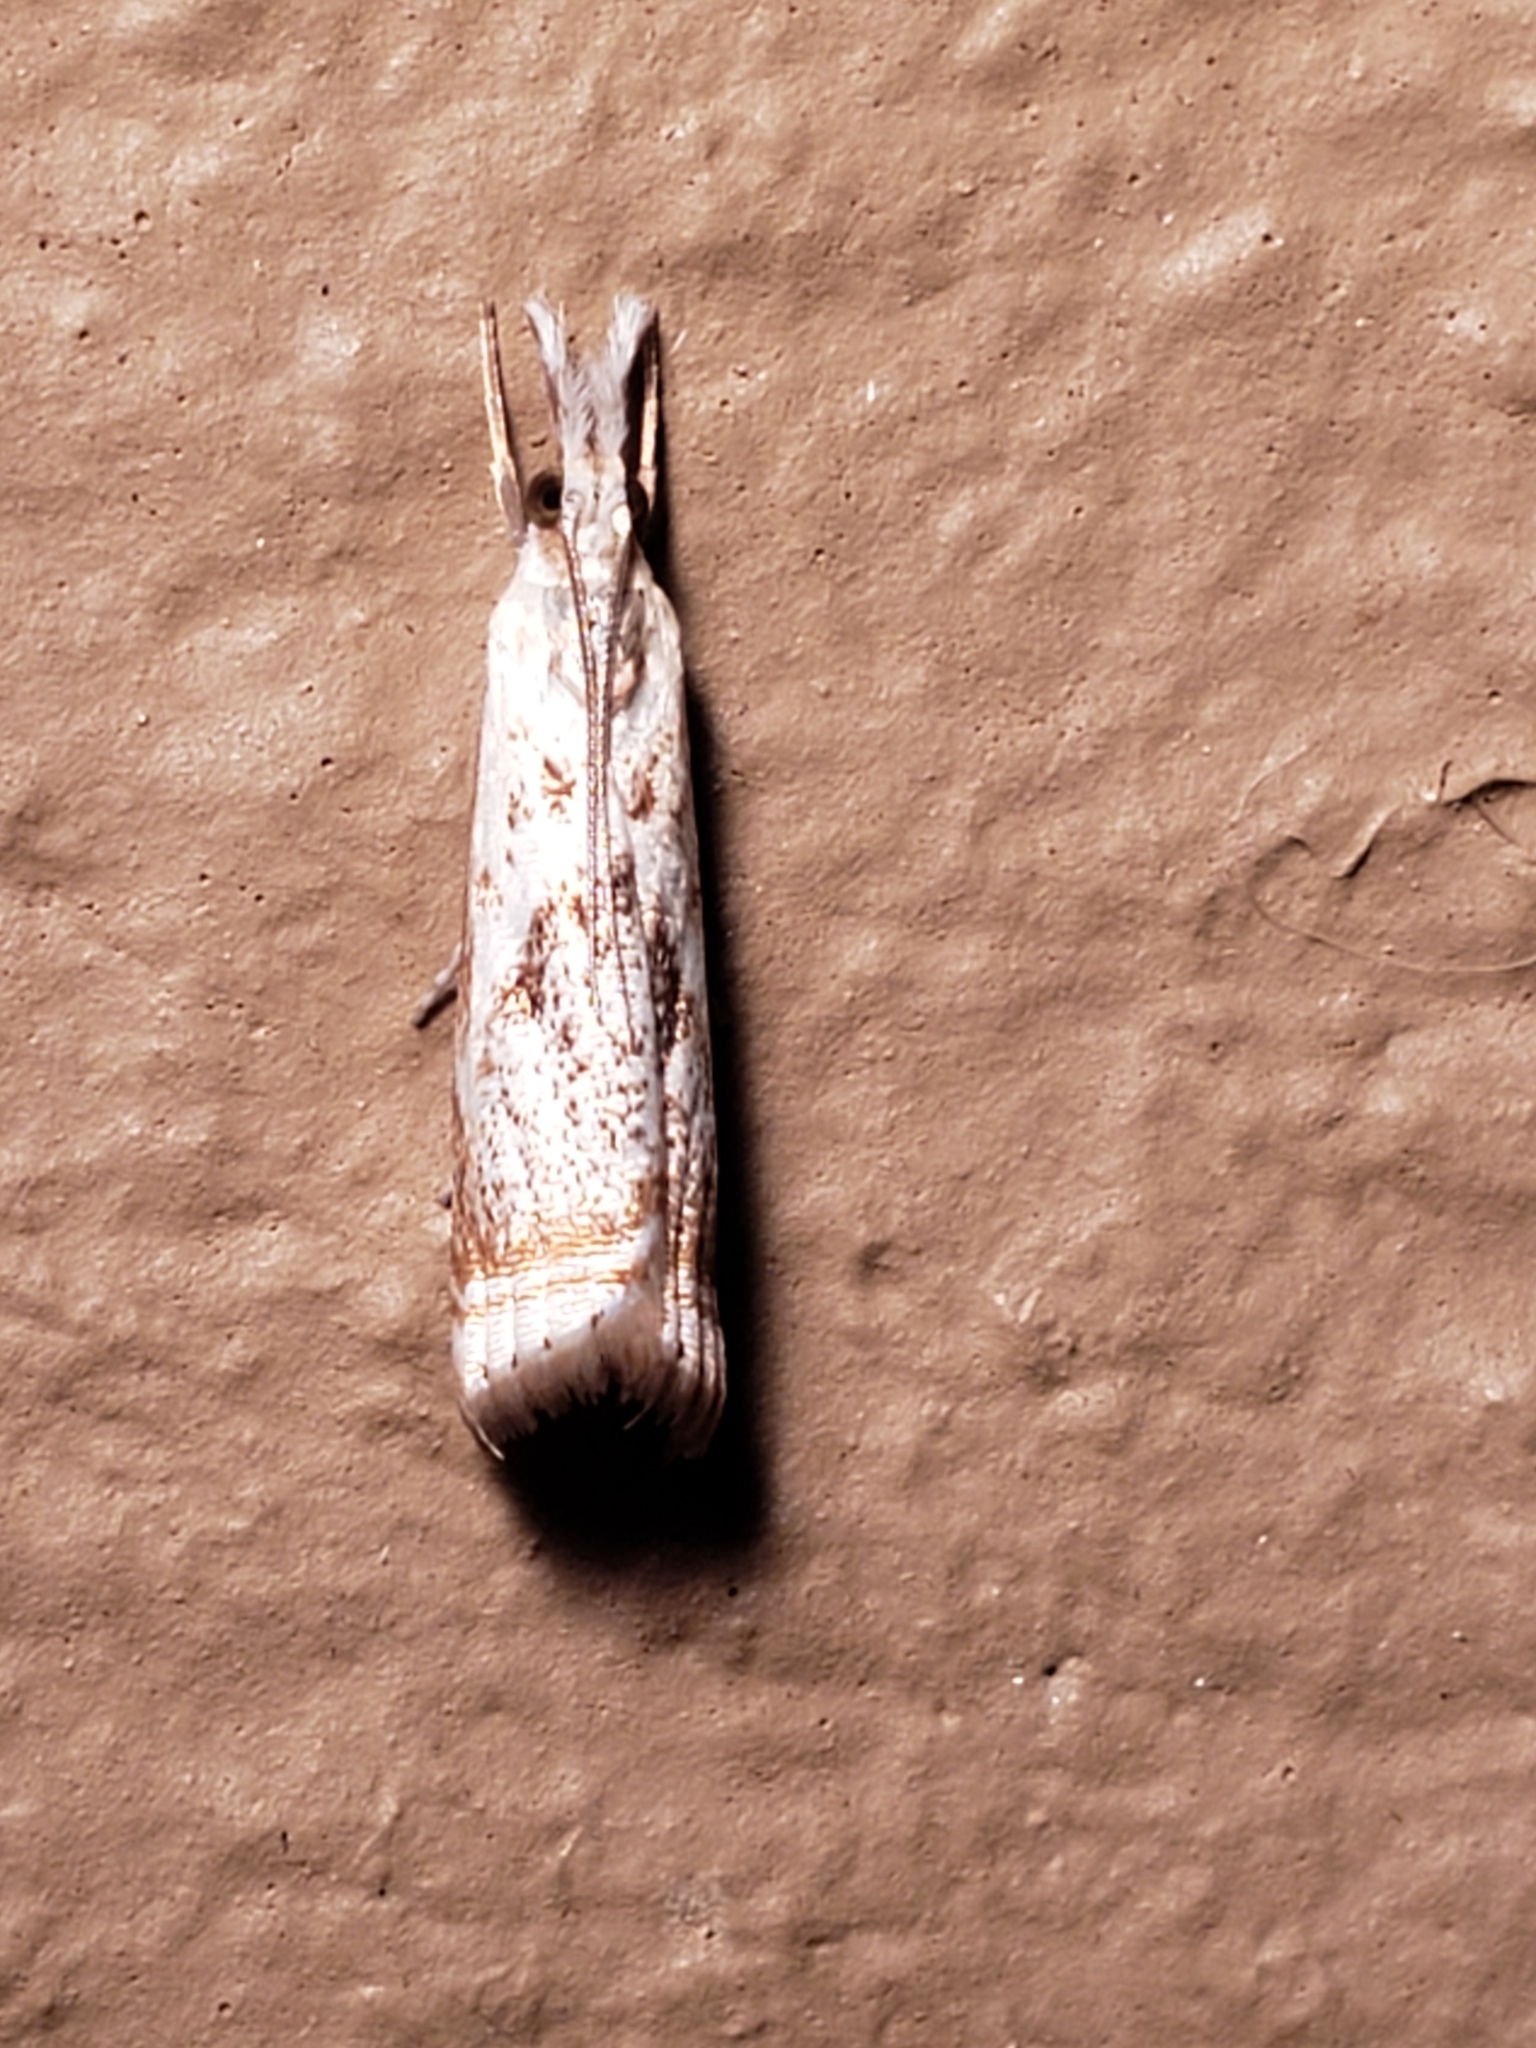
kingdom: Animalia
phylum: Arthropoda
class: Insecta
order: Lepidoptera
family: Crambidae
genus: Microcrambus
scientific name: Microcrambus elegans
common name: Elegant grass-veneer
